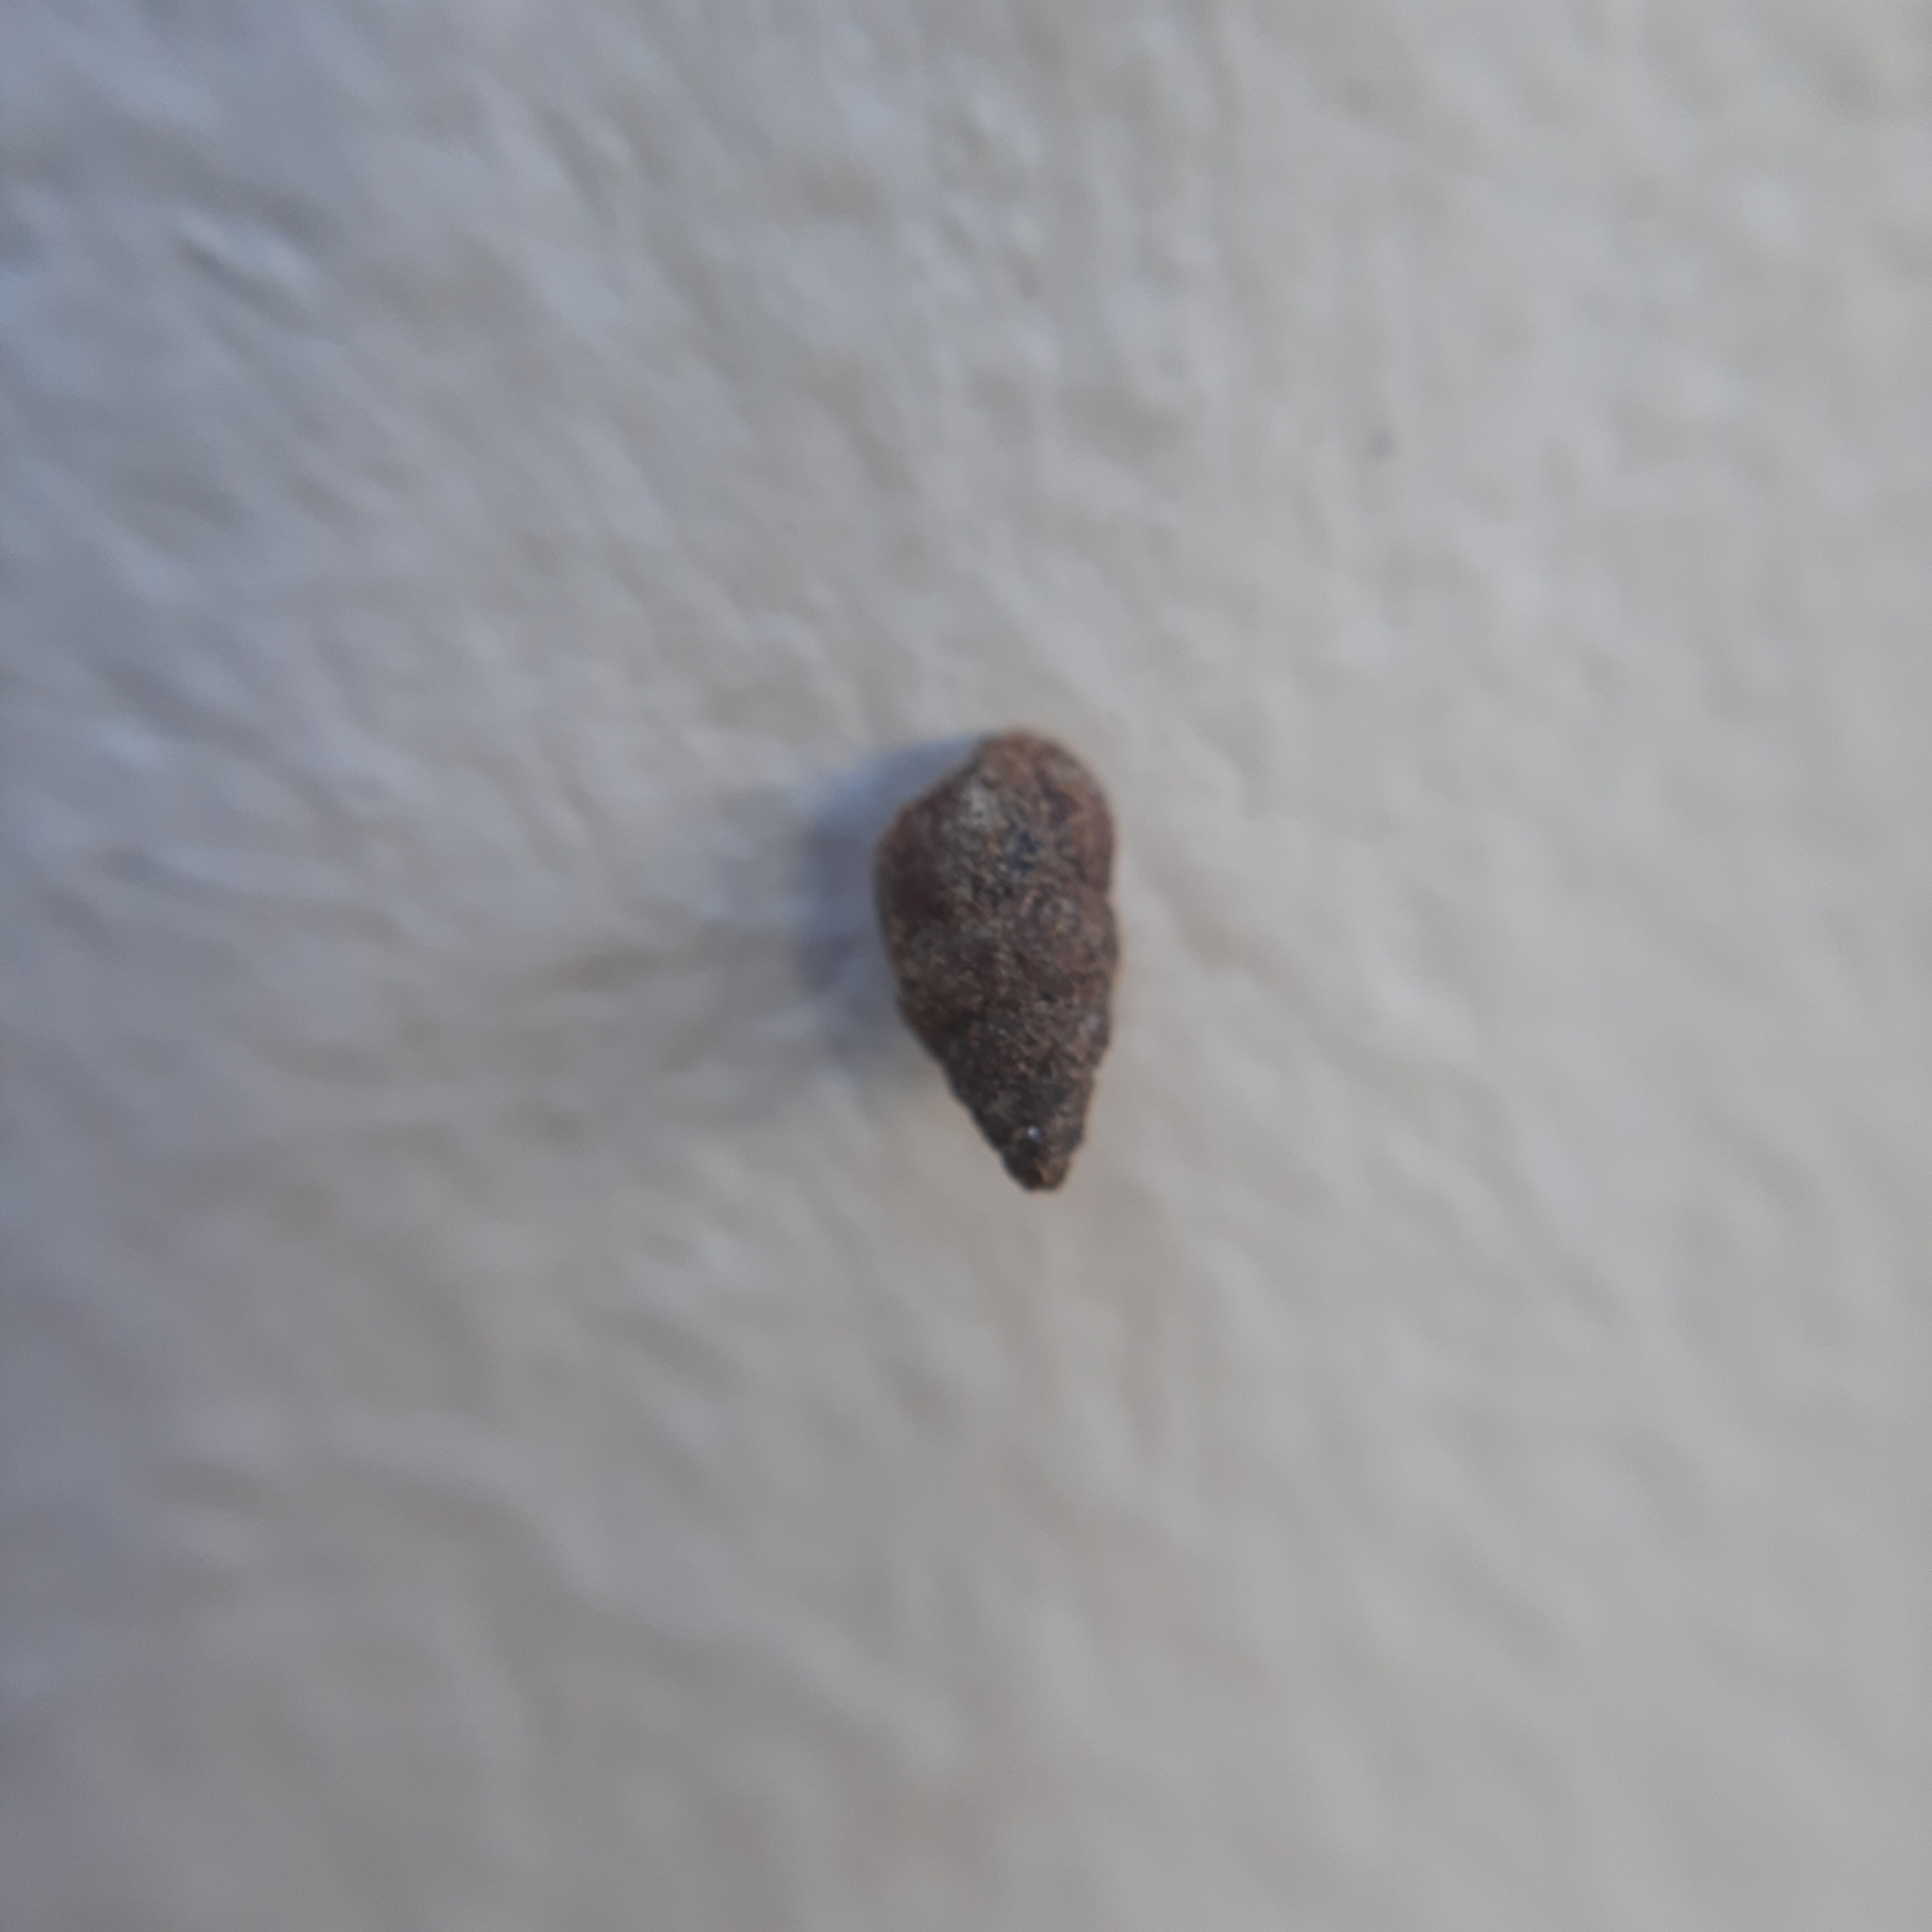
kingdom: Animalia
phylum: Mollusca
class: Gastropoda
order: Stylommatophora
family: Enidae
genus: Merdigera
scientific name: Merdigera obscura
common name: Lesser bulin
